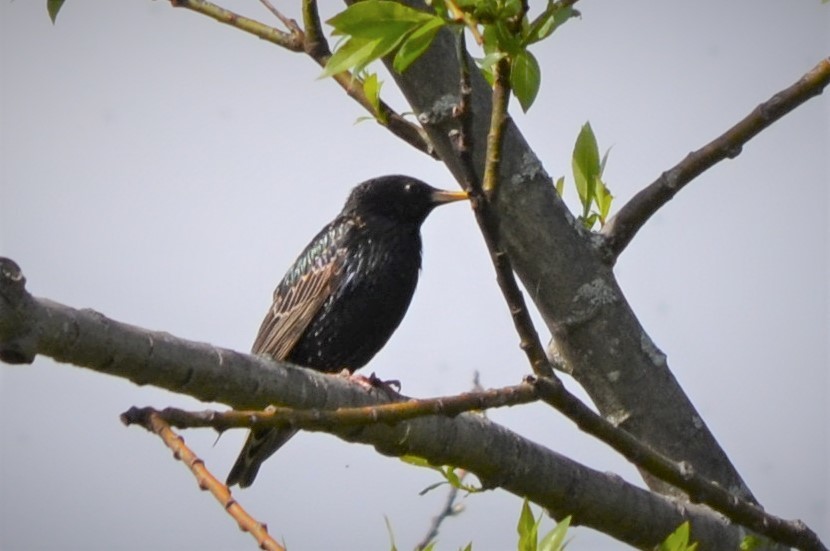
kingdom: Animalia
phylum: Chordata
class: Aves
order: Passeriformes
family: Sturnidae
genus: Sturnus
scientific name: Sturnus vulgaris
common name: Common starling
